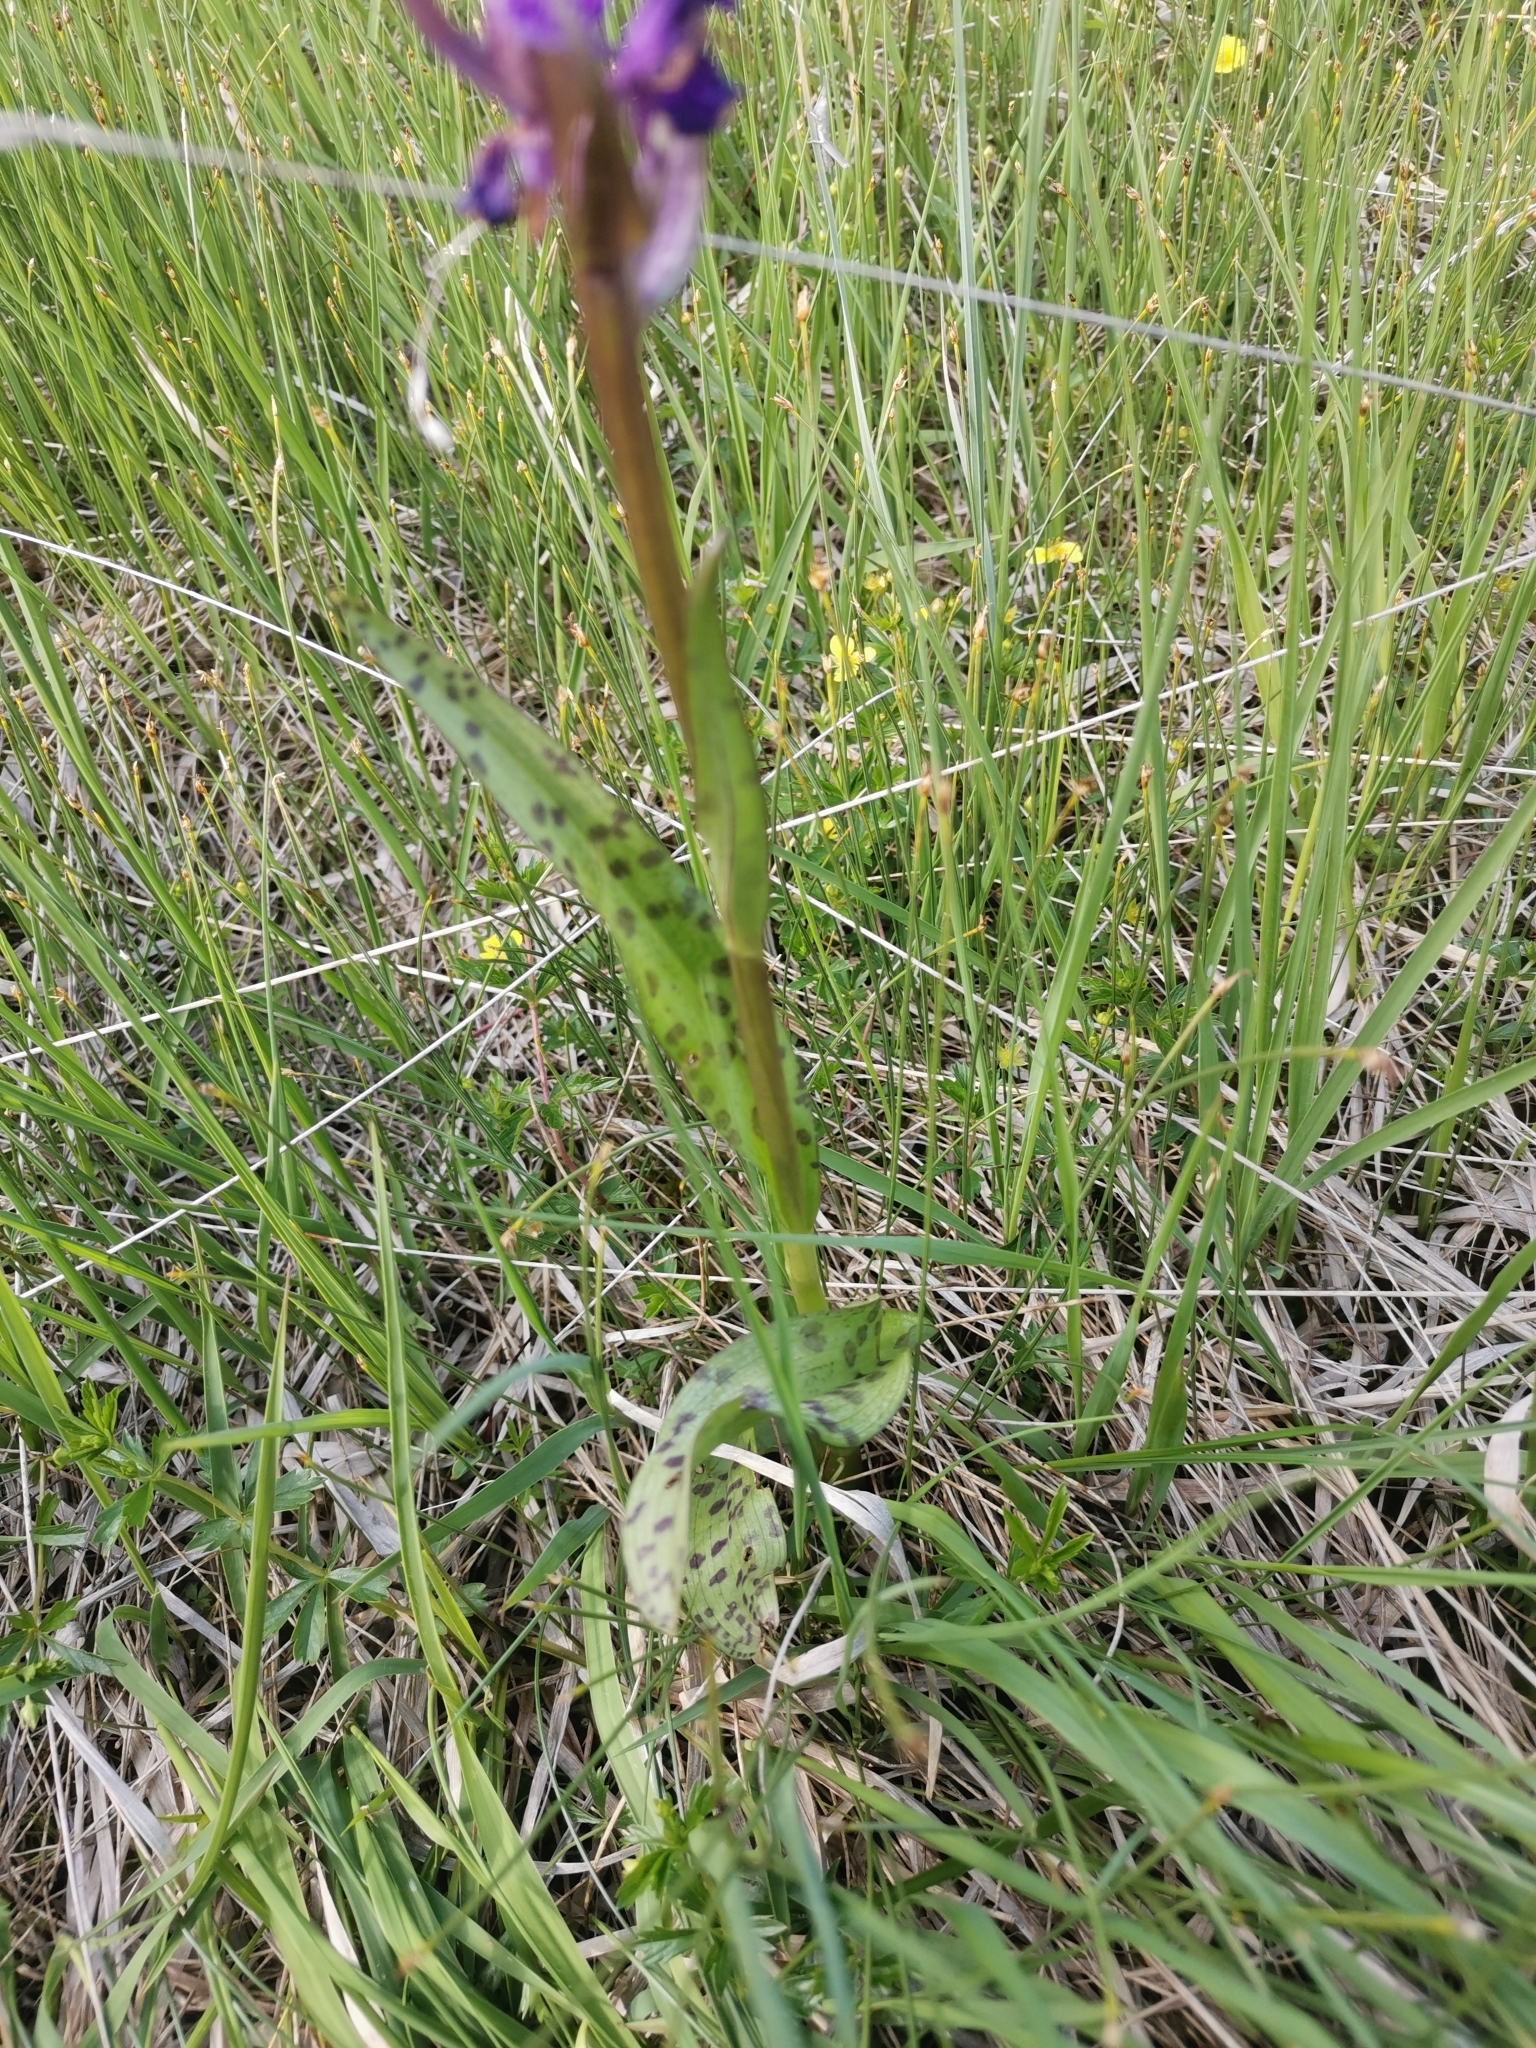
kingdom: Plantae
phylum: Tracheophyta
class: Liliopsida
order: Asparagales
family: Orchidaceae
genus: Dactylorhiza
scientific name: Dactylorhiza majalis
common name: Marsh orchid
